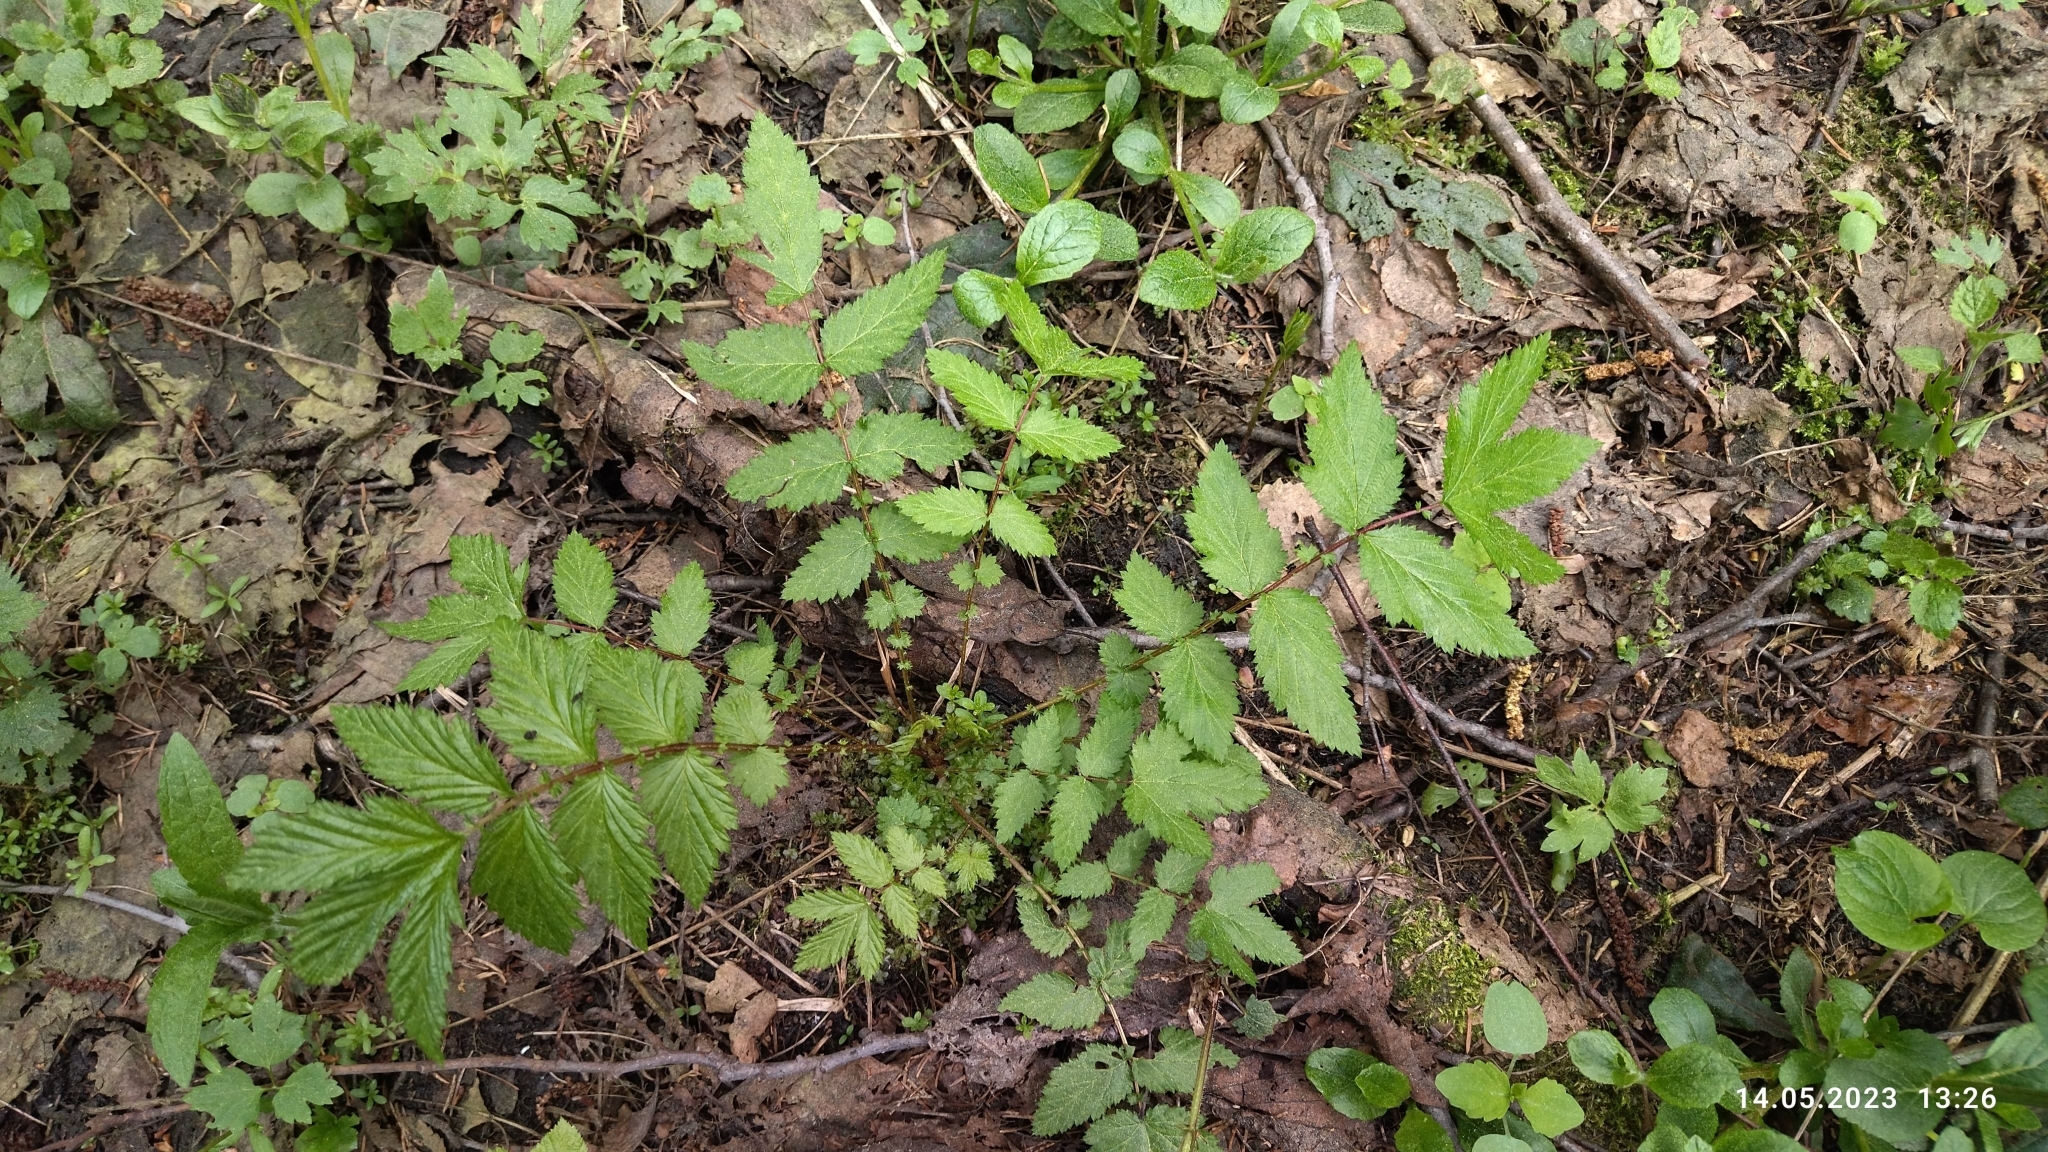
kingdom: Plantae
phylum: Tracheophyta
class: Magnoliopsida
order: Rosales
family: Rosaceae
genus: Filipendula
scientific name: Filipendula ulmaria
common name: Meadowsweet
